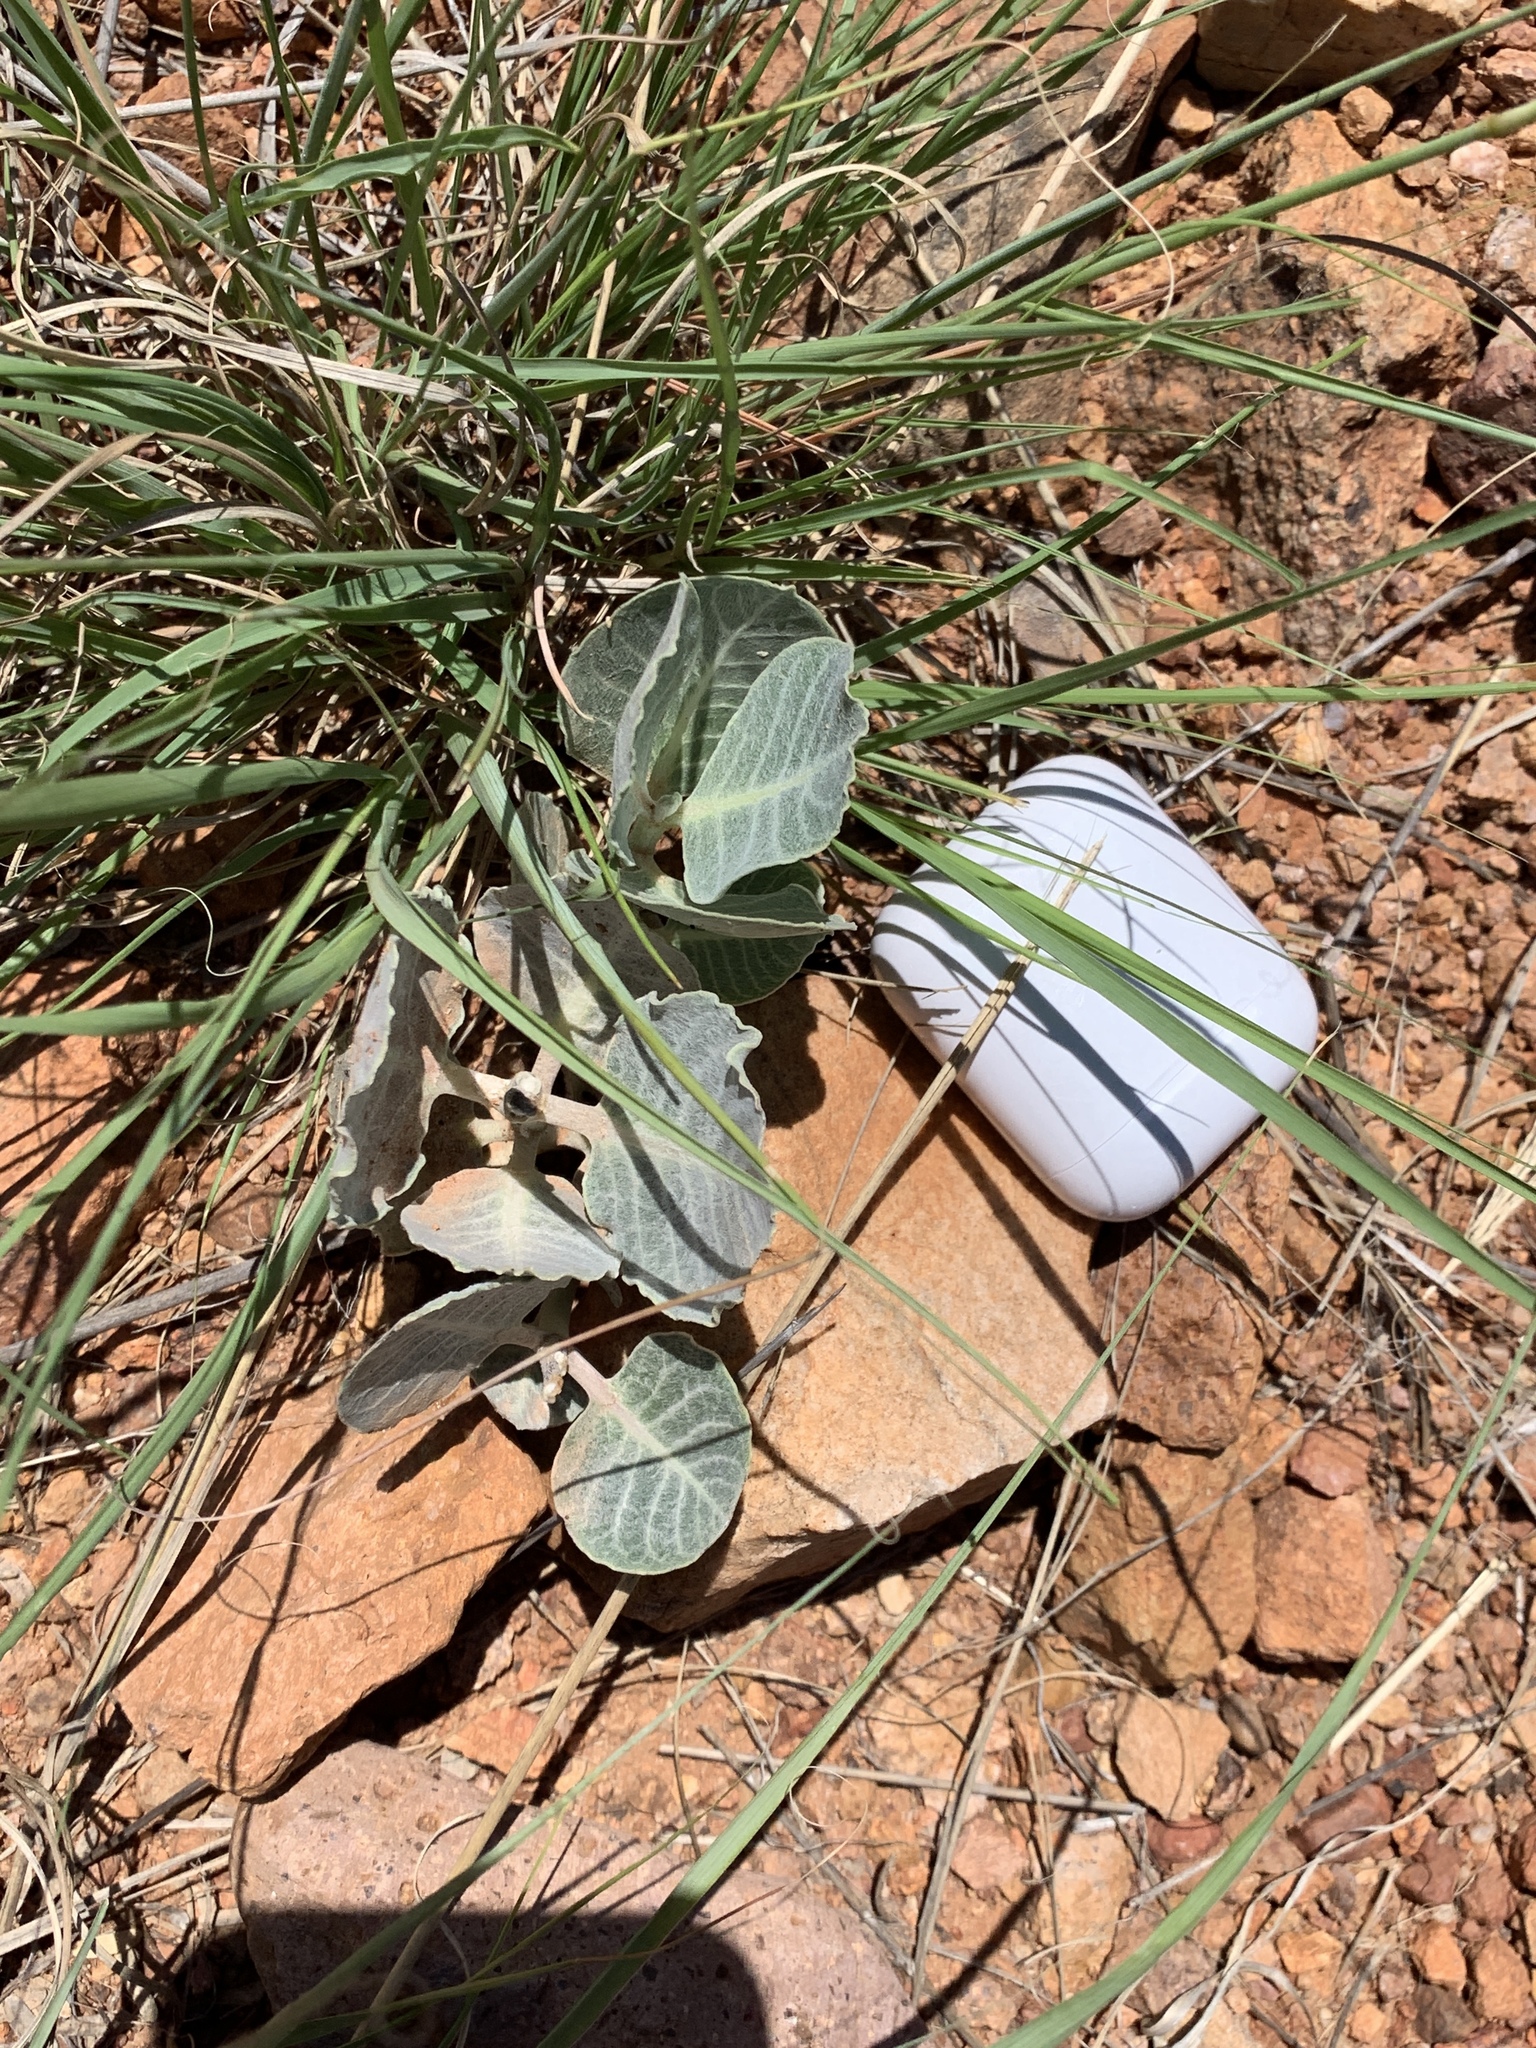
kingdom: Plantae
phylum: Tracheophyta
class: Magnoliopsida
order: Gentianales
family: Apocynaceae
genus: Asclepias
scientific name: Asclepias nummularia
